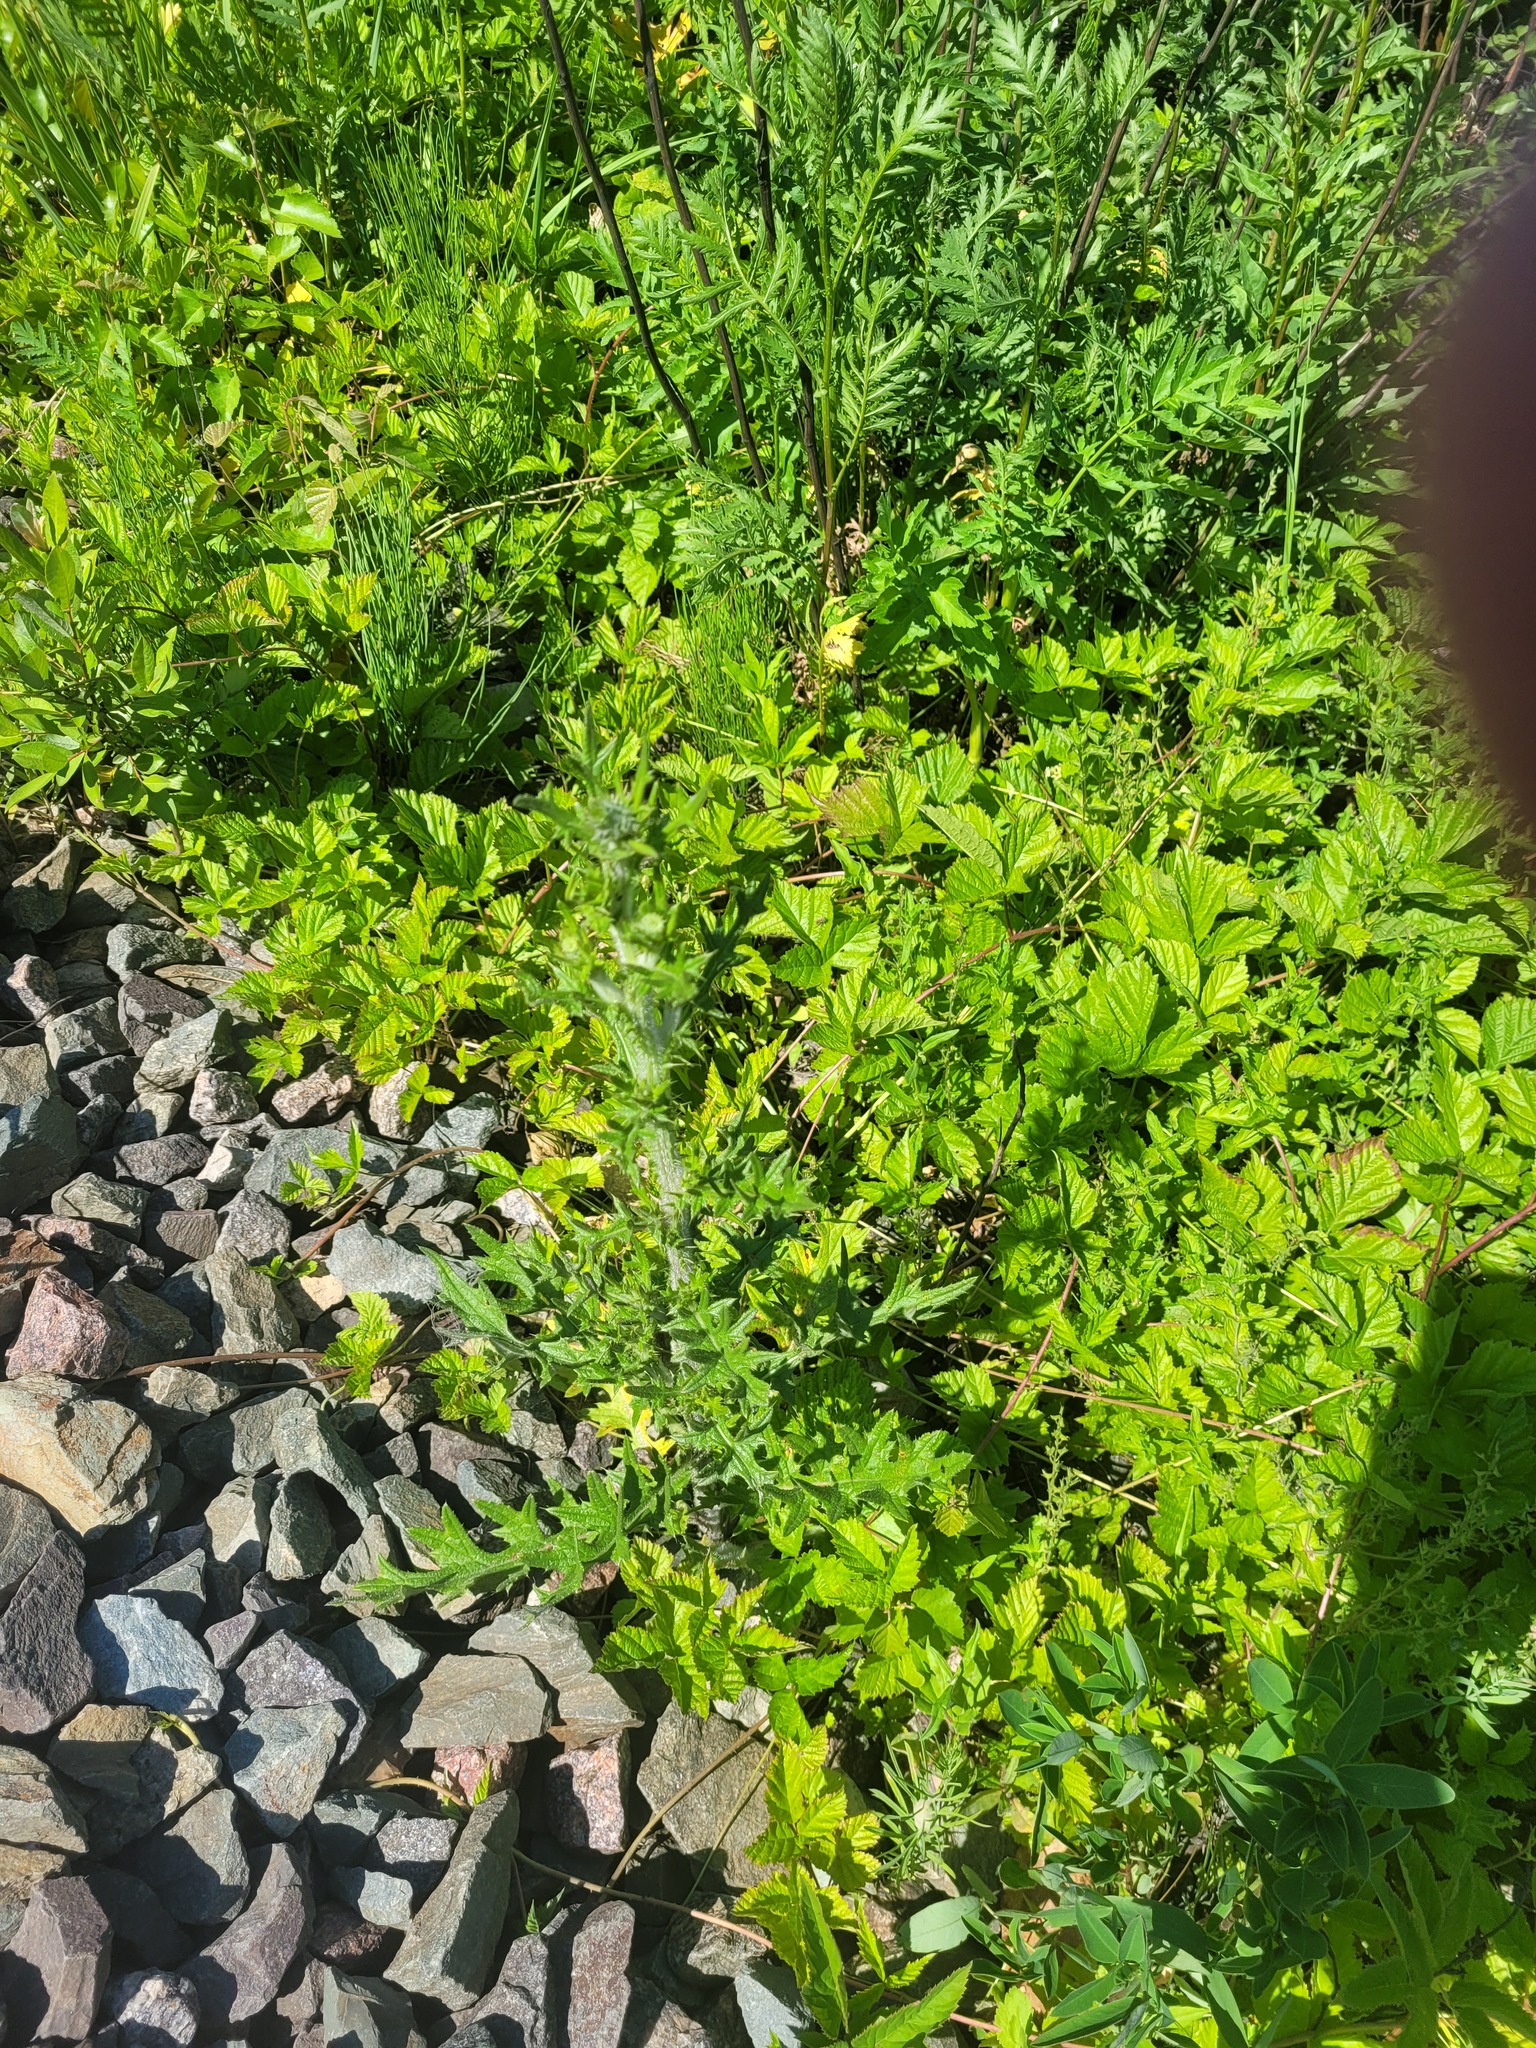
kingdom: Plantae
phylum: Tracheophyta
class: Magnoliopsida
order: Asterales
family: Asteraceae
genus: Cirsium
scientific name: Cirsium vulgare
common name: Bull thistle
